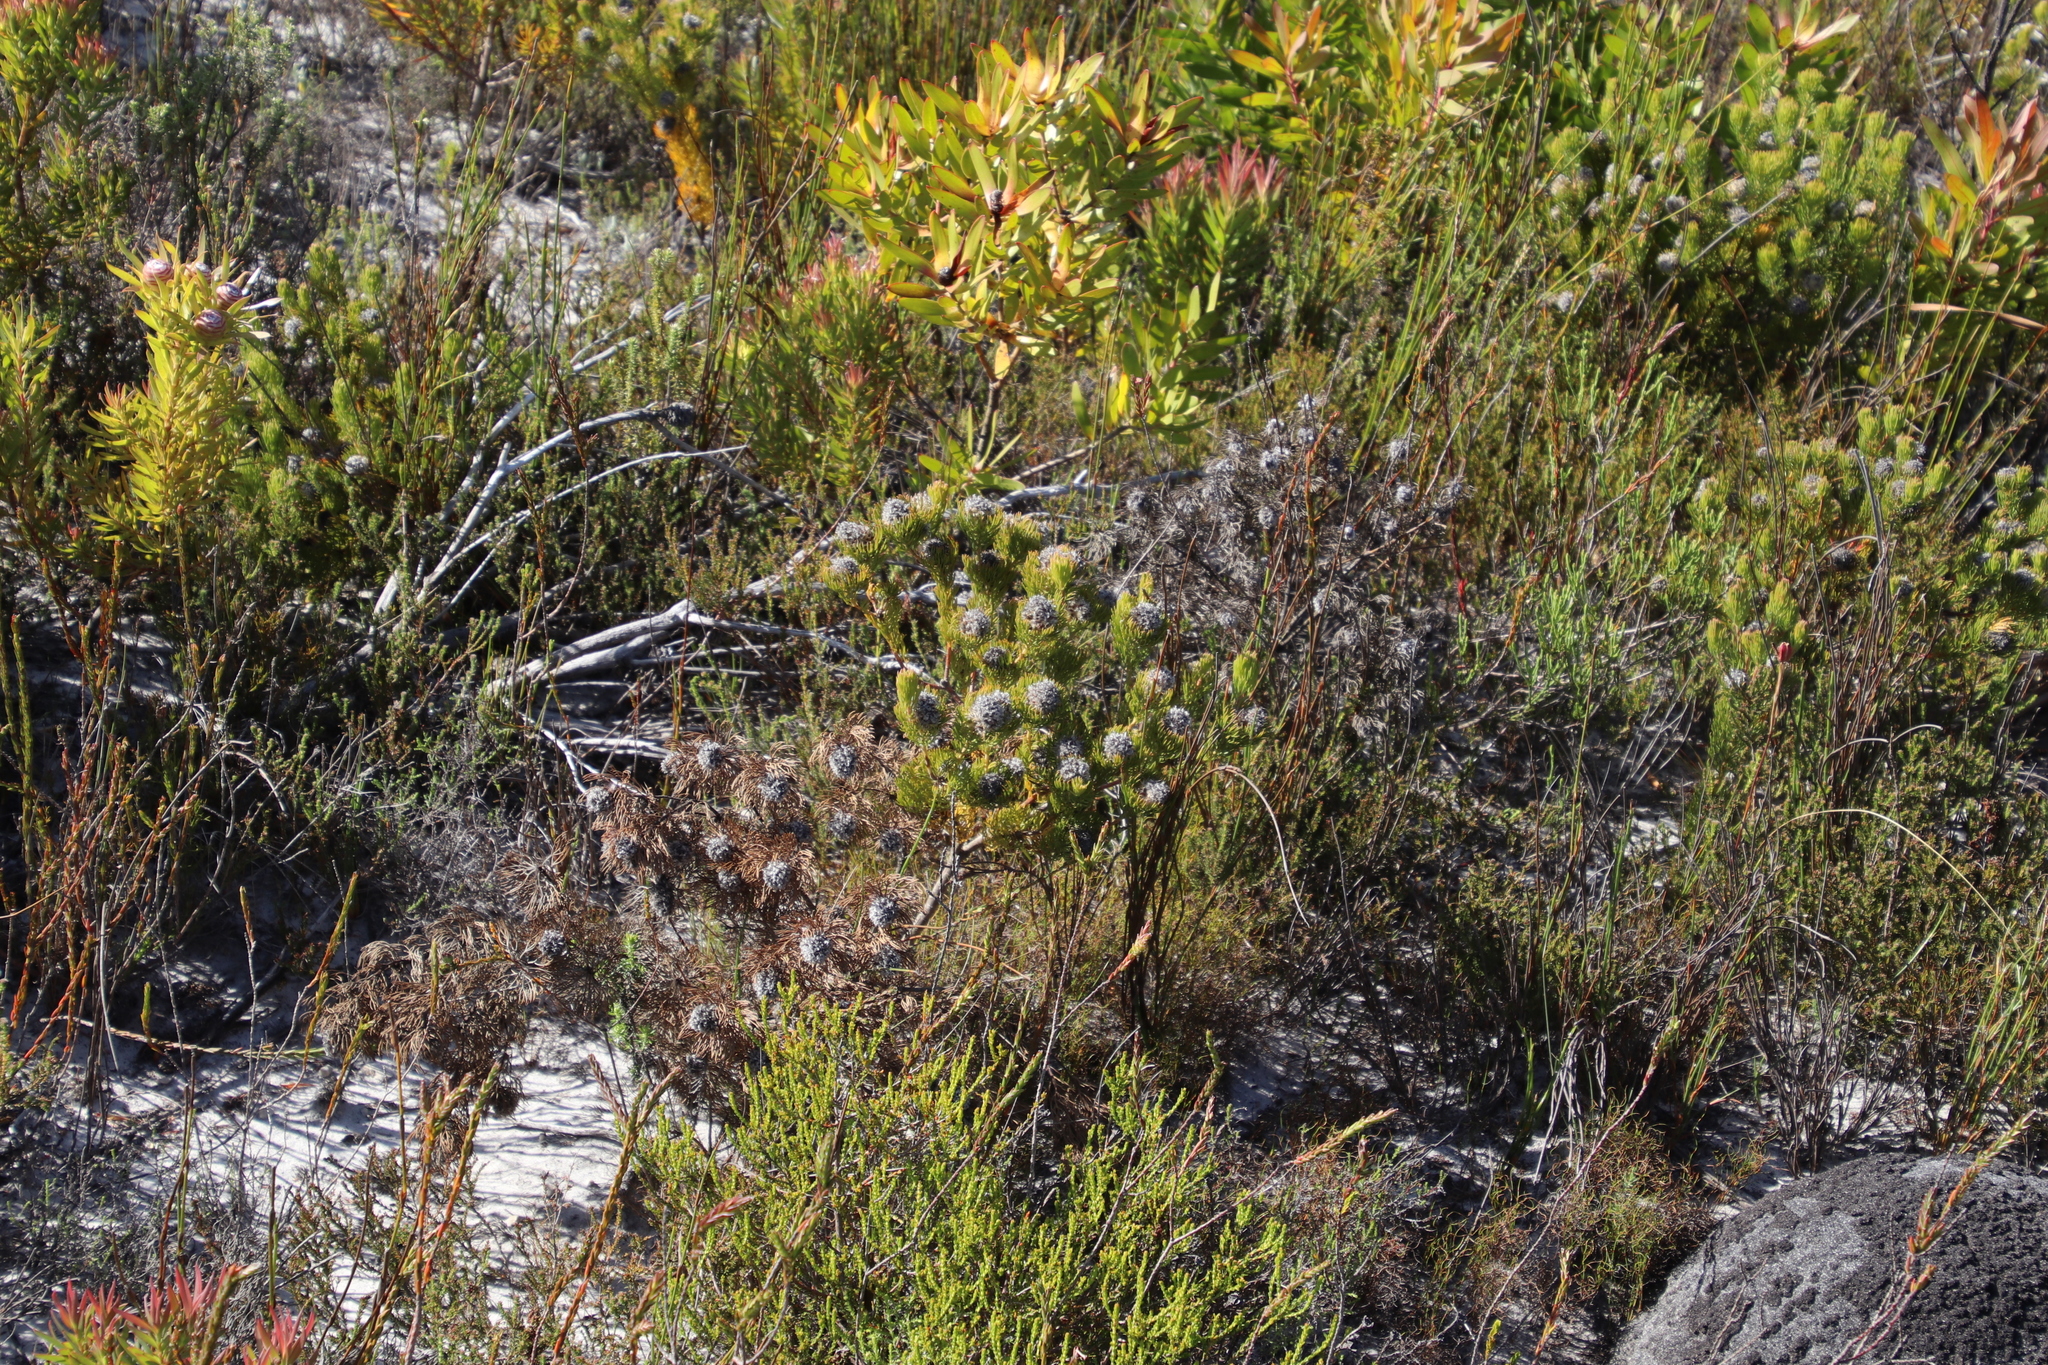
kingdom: Plantae
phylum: Tracheophyta
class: Magnoliopsida
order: Proteales
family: Proteaceae
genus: Serruria
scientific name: Serruria villosa
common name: Golden spiderhead
